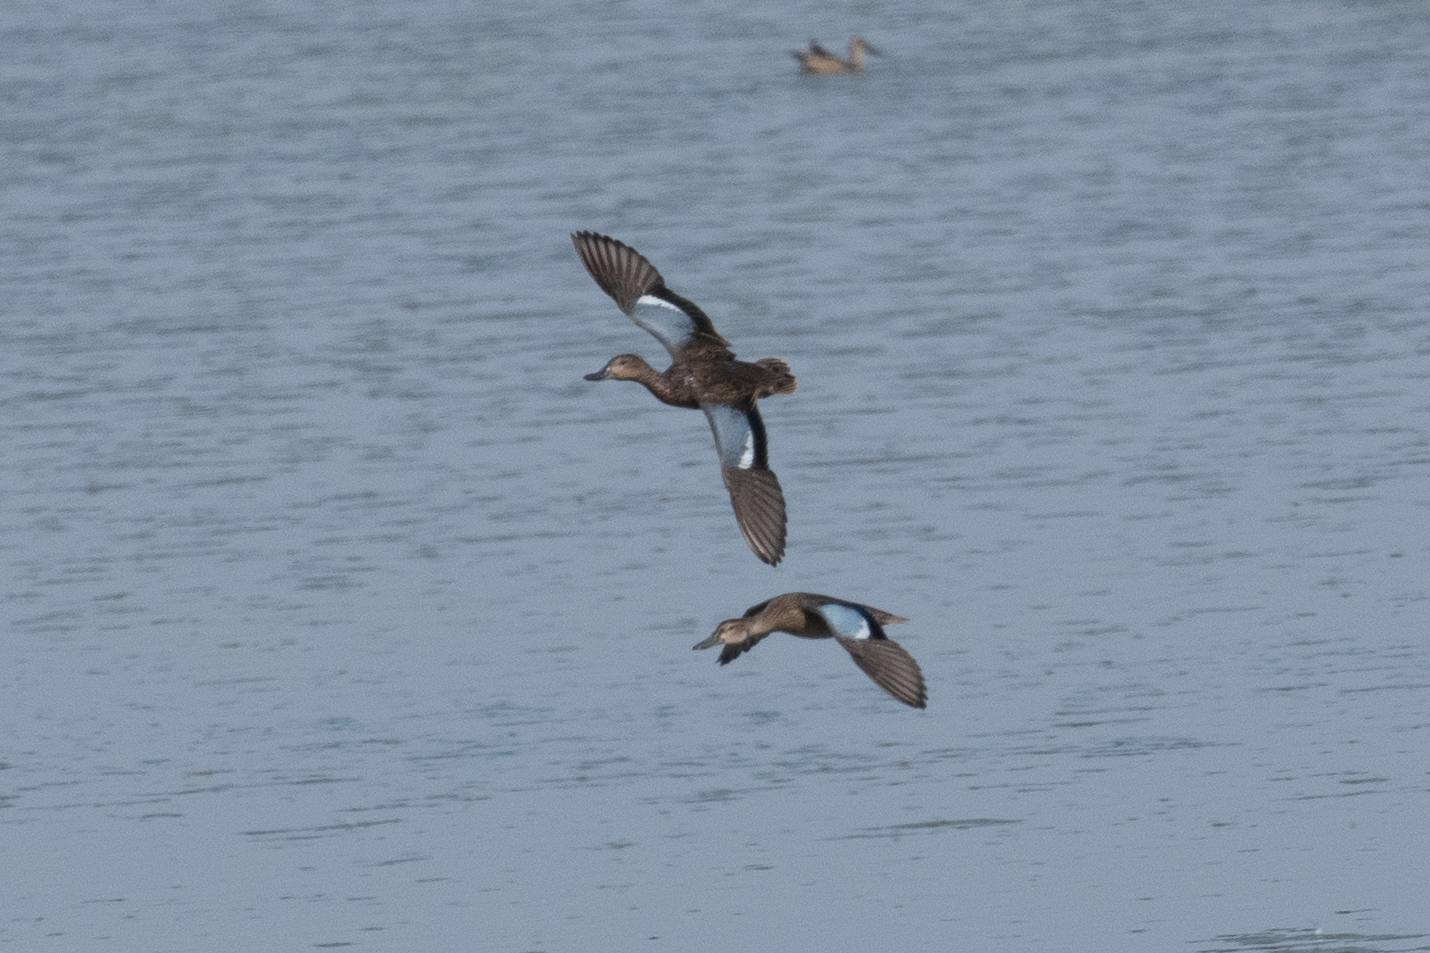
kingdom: Animalia
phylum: Chordata
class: Aves
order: Anseriformes
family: Anatidae
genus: Spatula
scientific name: Spatula discors
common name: Blue-winged teal
